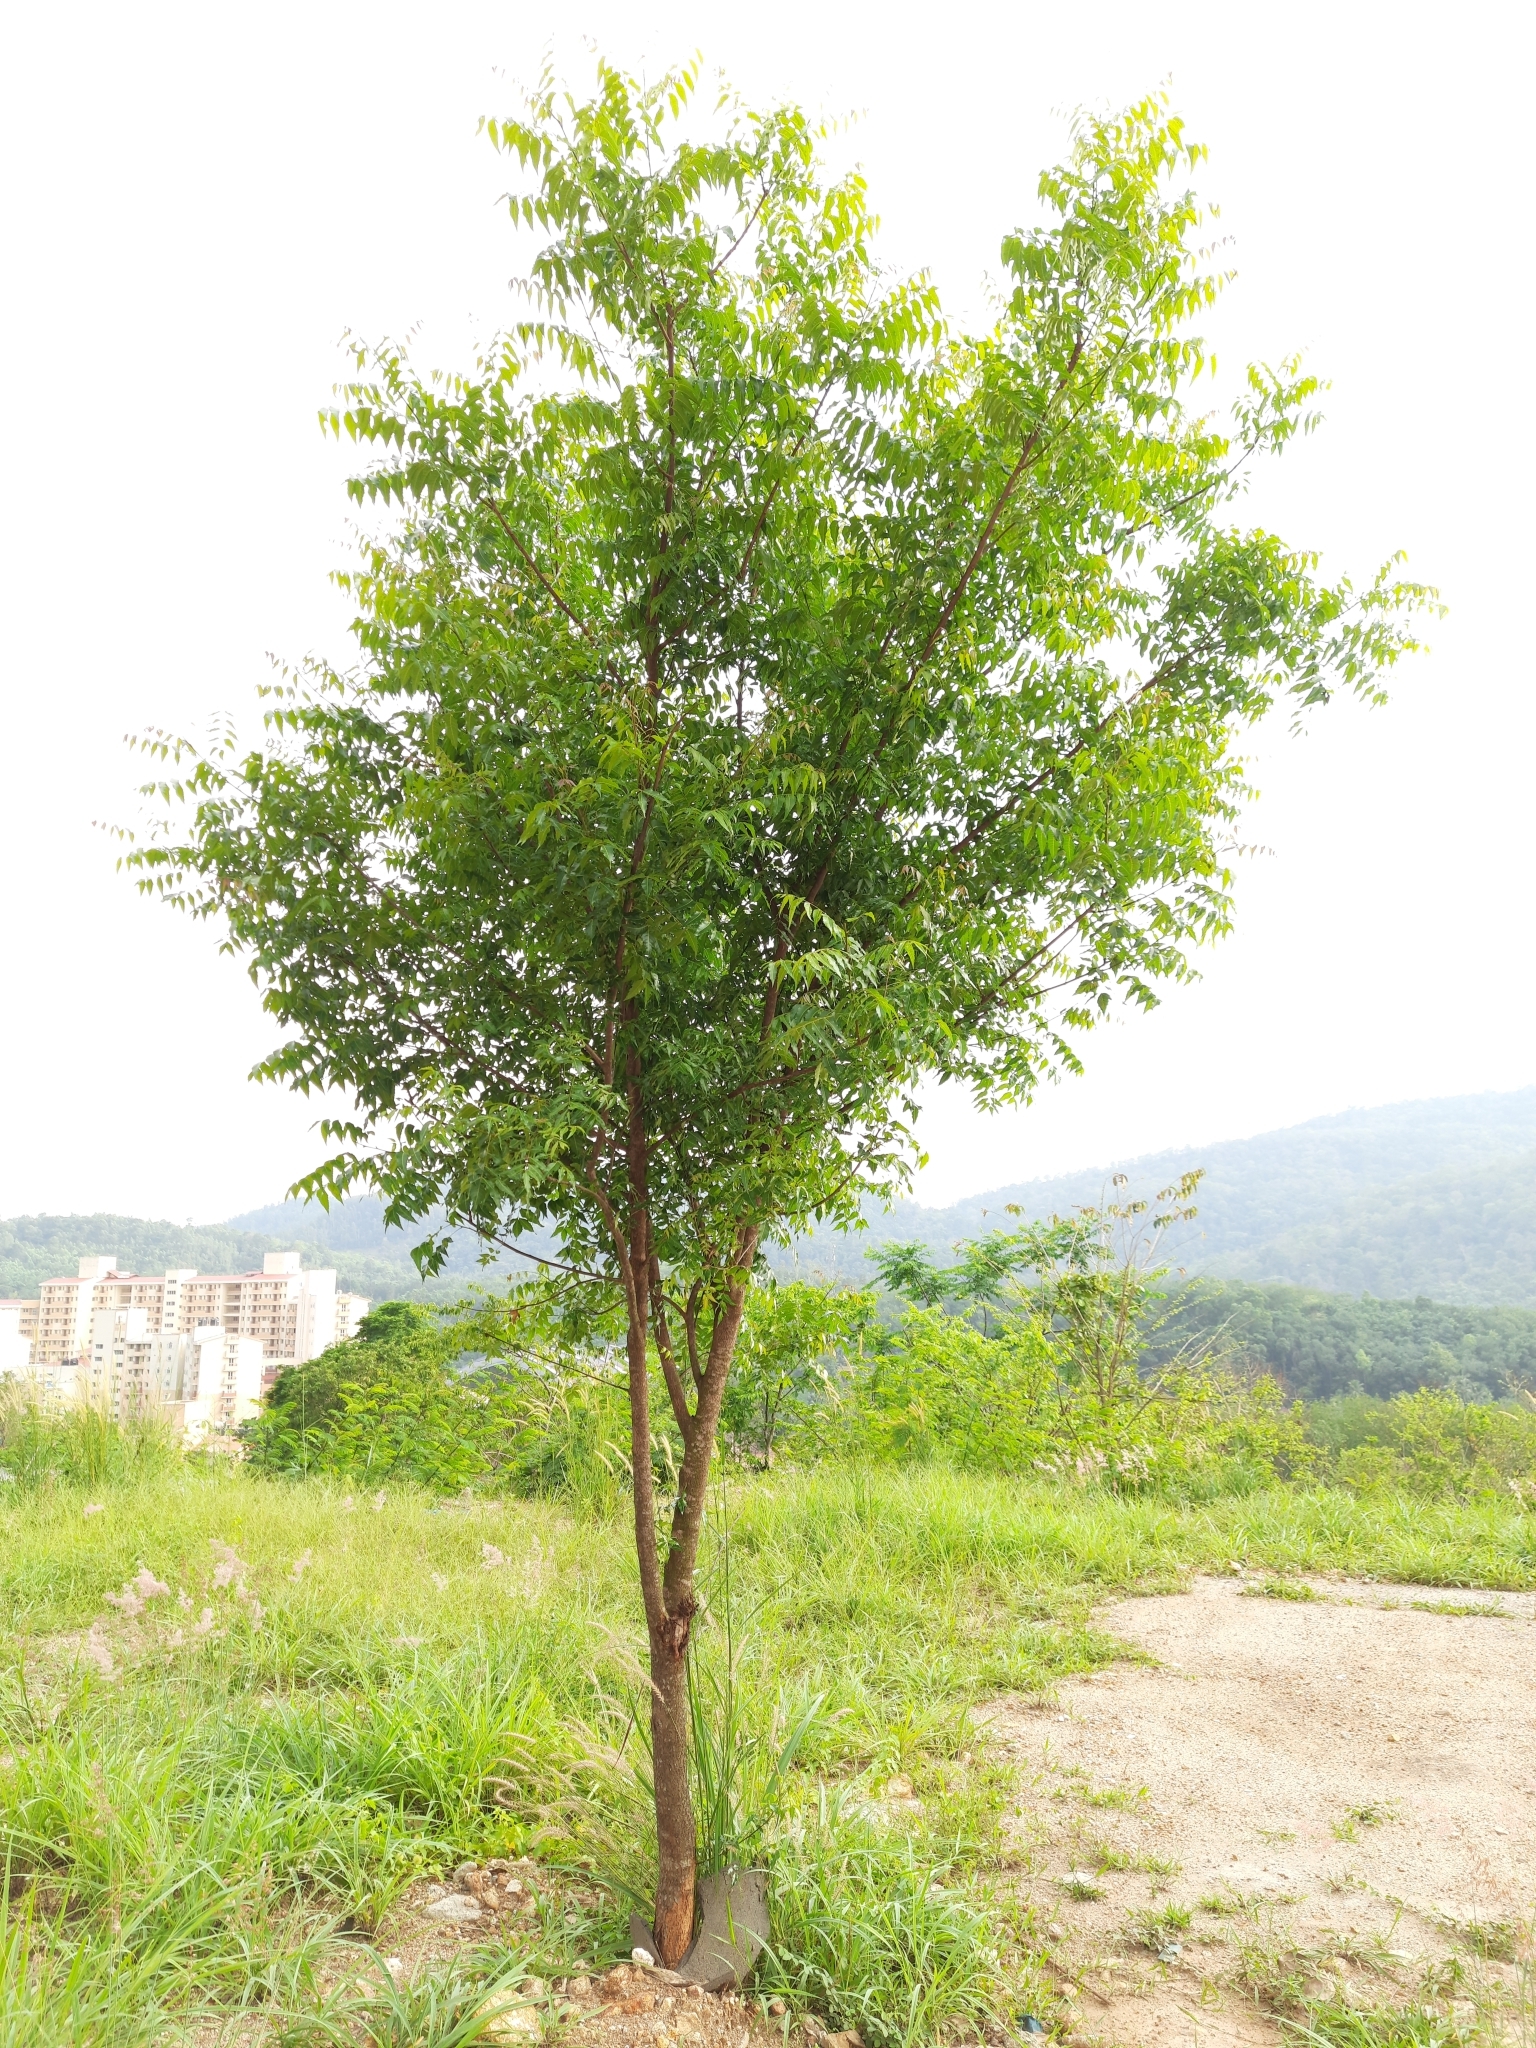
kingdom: Plantae
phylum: Tracheophyta
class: Magnoliopsida
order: Sapindales
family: Meliaceae
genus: Azadirachta
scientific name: Azadirachta indica
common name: Neem
